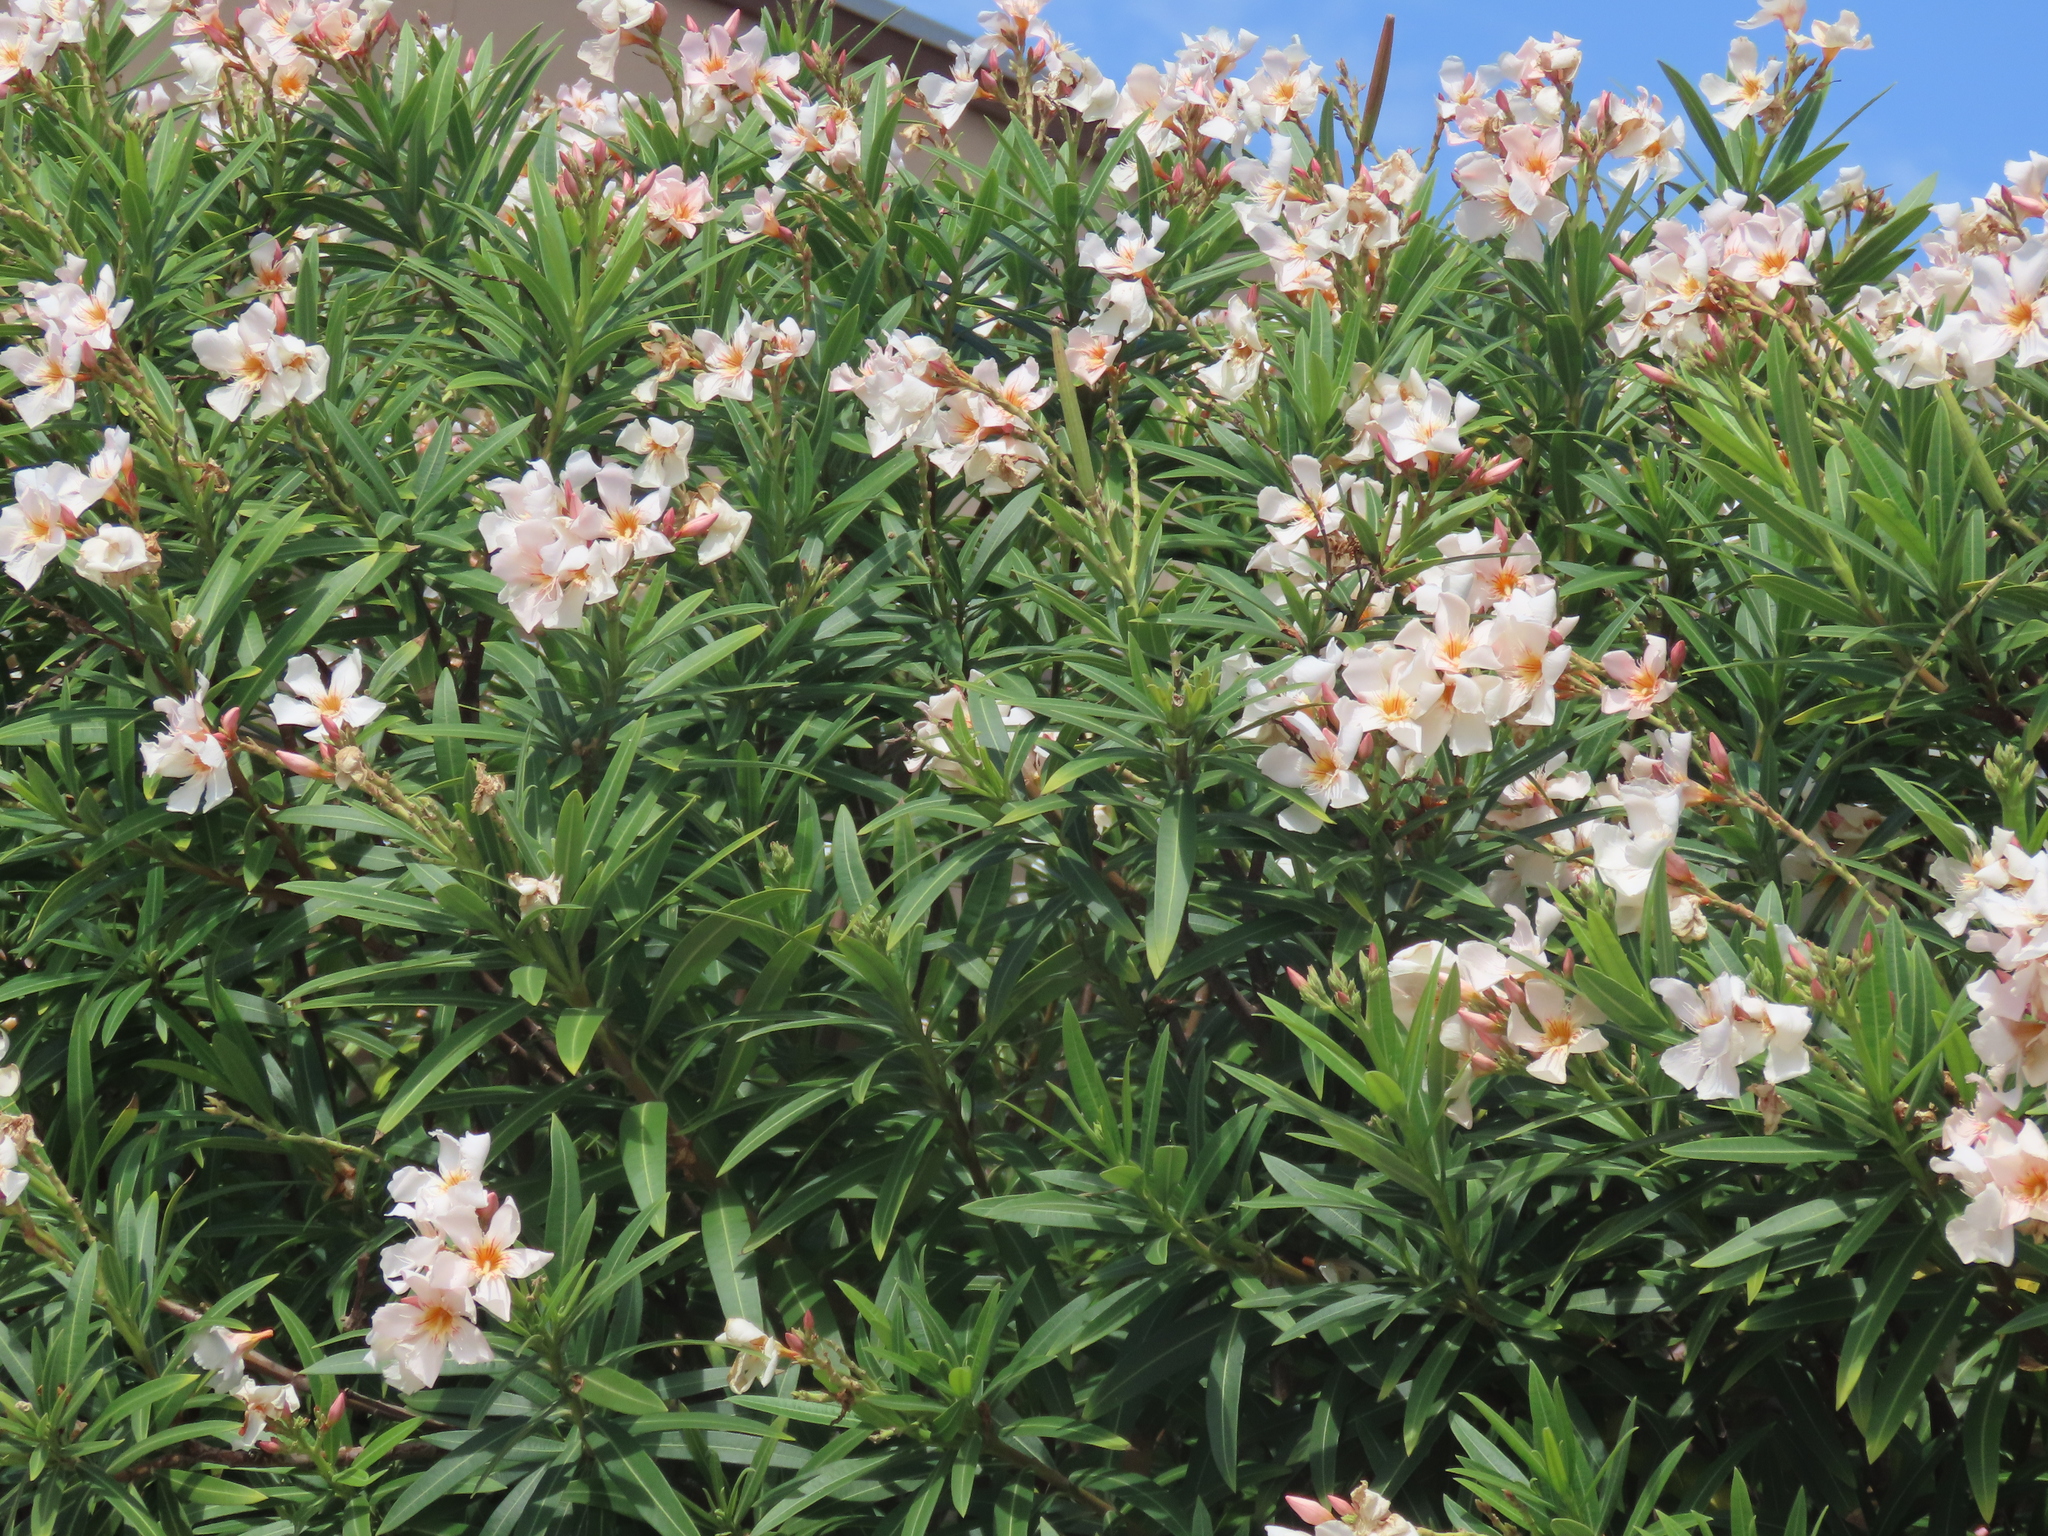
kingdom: Plantae
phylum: Tracheophyta
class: Magnoliopsida
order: Gentianales
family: Apocynaceae
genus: Nerium
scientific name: Nerium oleander
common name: Oleander
